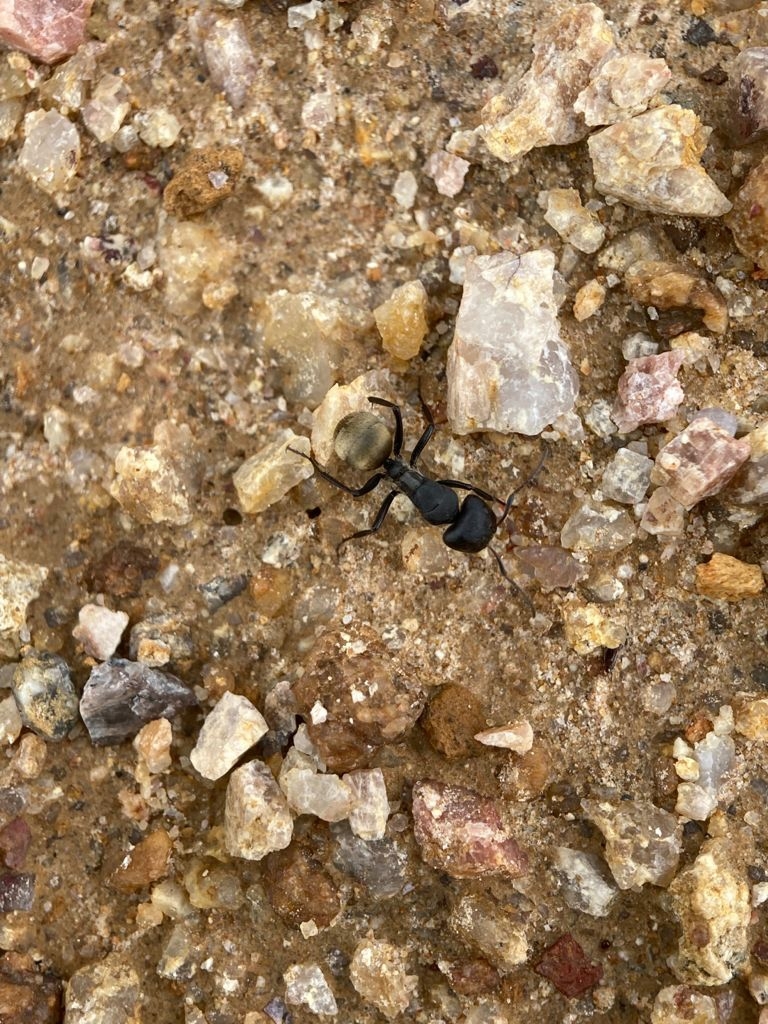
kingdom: Animalia
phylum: Arthropoda
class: Insecta
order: Hymenoptera
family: Formicidae
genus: Camponotus
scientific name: Camponotus sericeus
